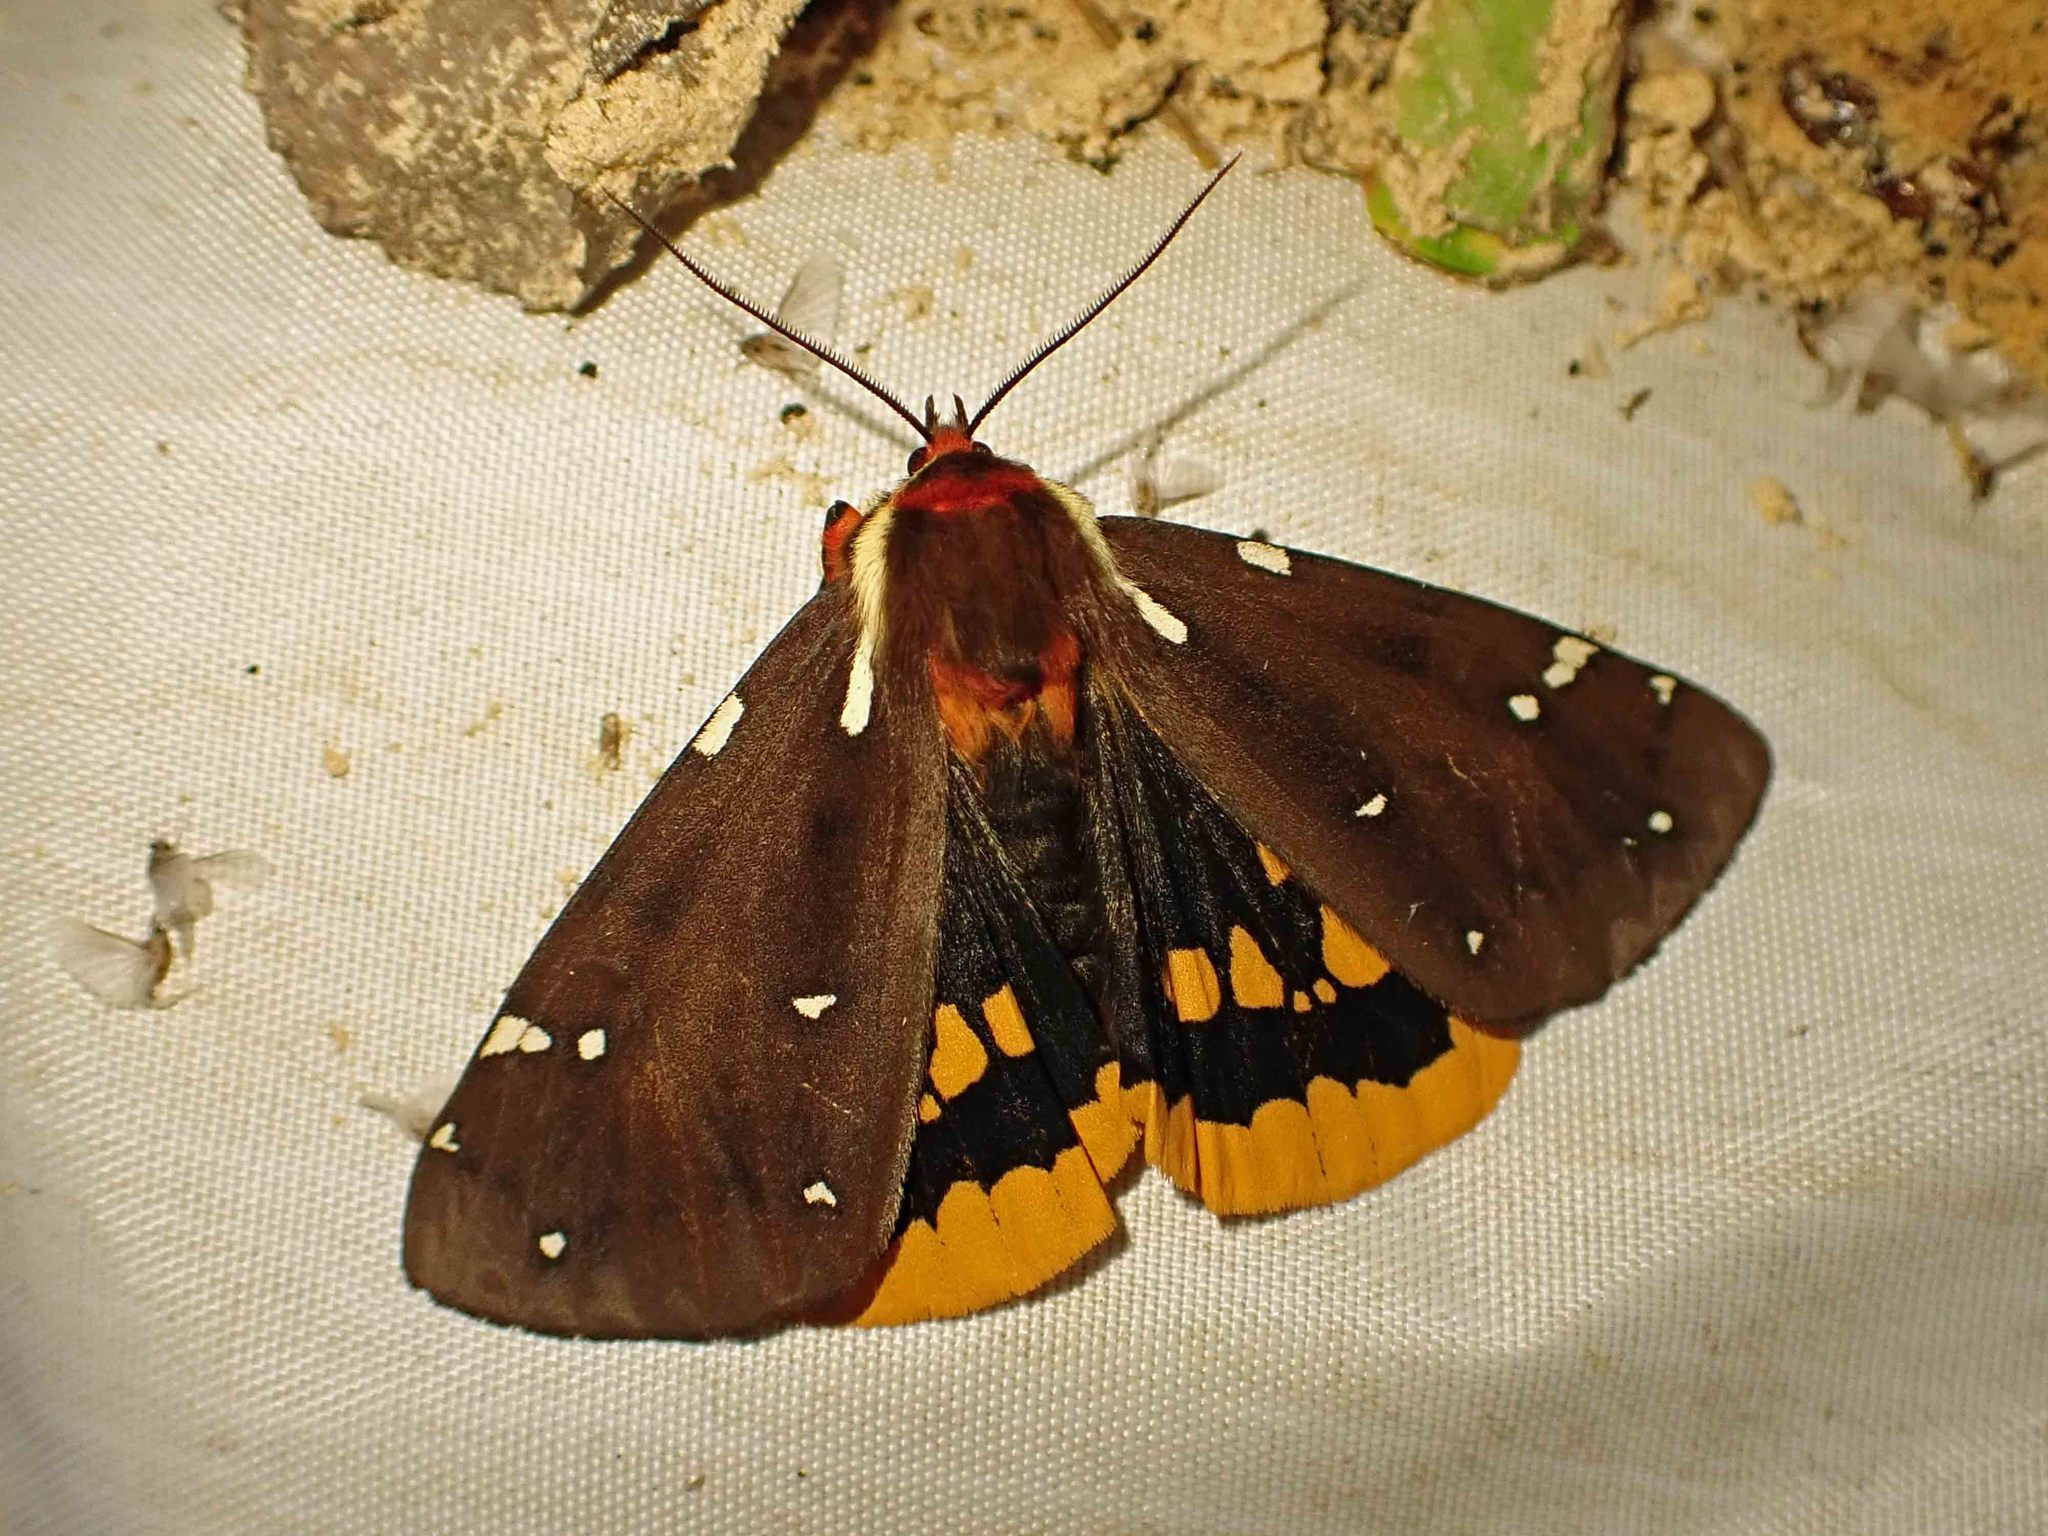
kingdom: Animalia
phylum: Arthropoda
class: Insecta
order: Lepidoptera
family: Erebidae
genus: Arctia
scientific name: Arctia parthenos
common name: St. lawrence tiger moth
